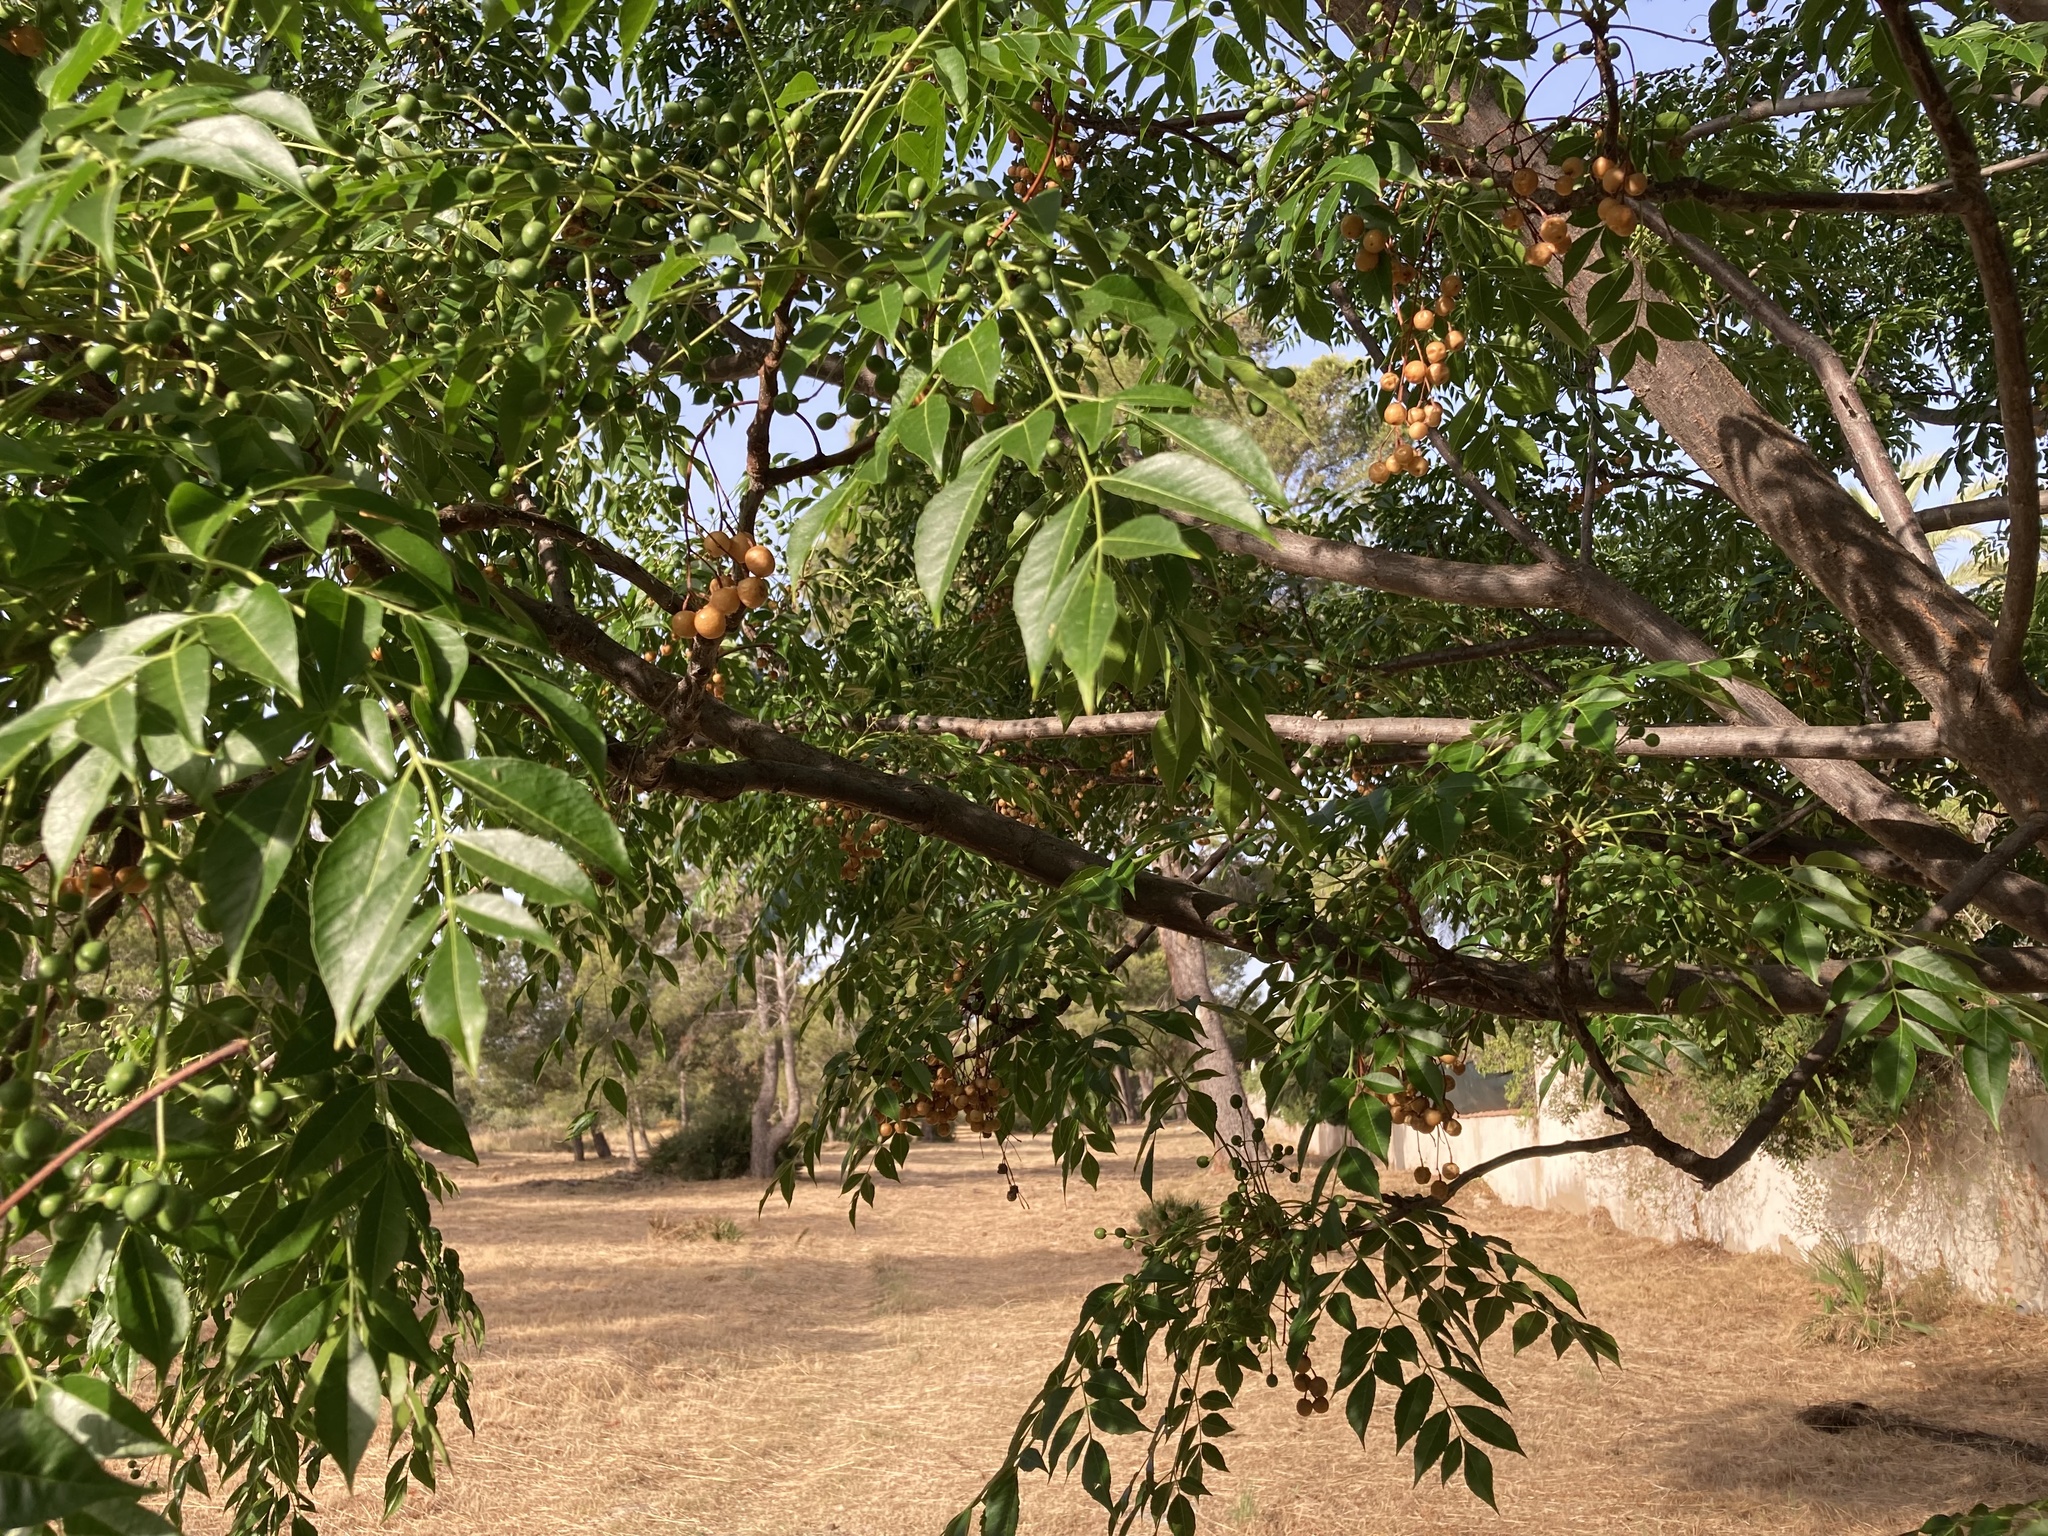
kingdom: Plantae
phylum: Tracheophyta
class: Magnoliopsida
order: Sapindales
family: Meliaceae
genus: Melia
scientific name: Melia azedarach
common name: Chinaberrytree
